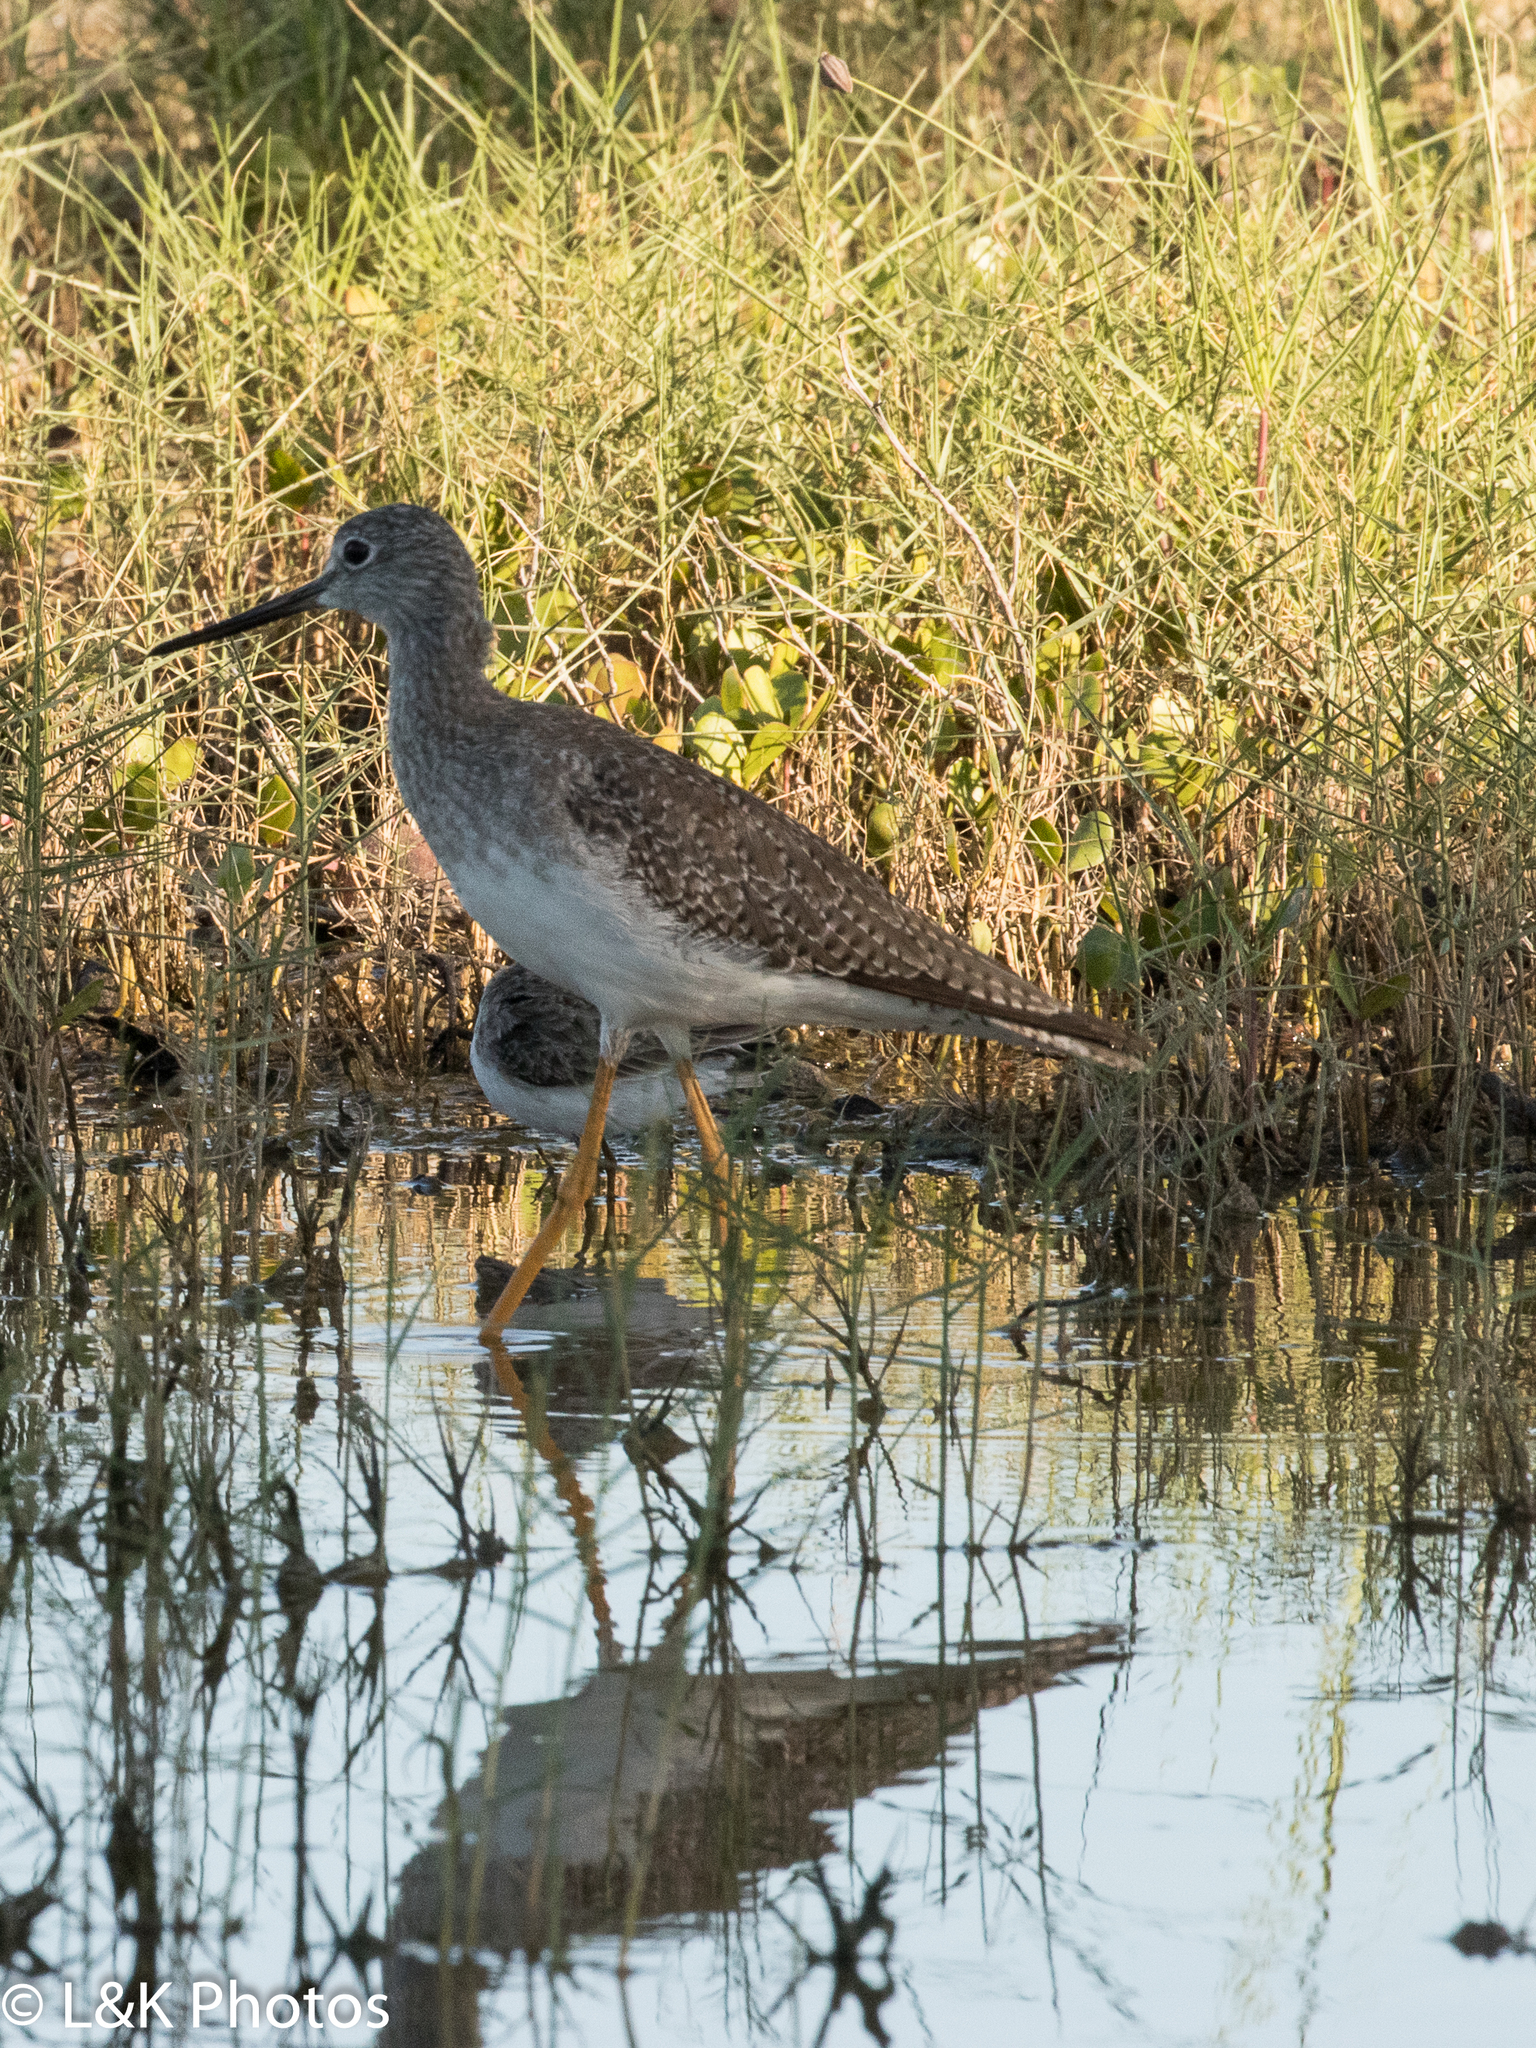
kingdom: Animalia
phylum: Chordata
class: Aves
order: Charadriiformes
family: Scolopacidae
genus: Tringa
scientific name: Tringa melanoleuca
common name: Greater yellowlegs
